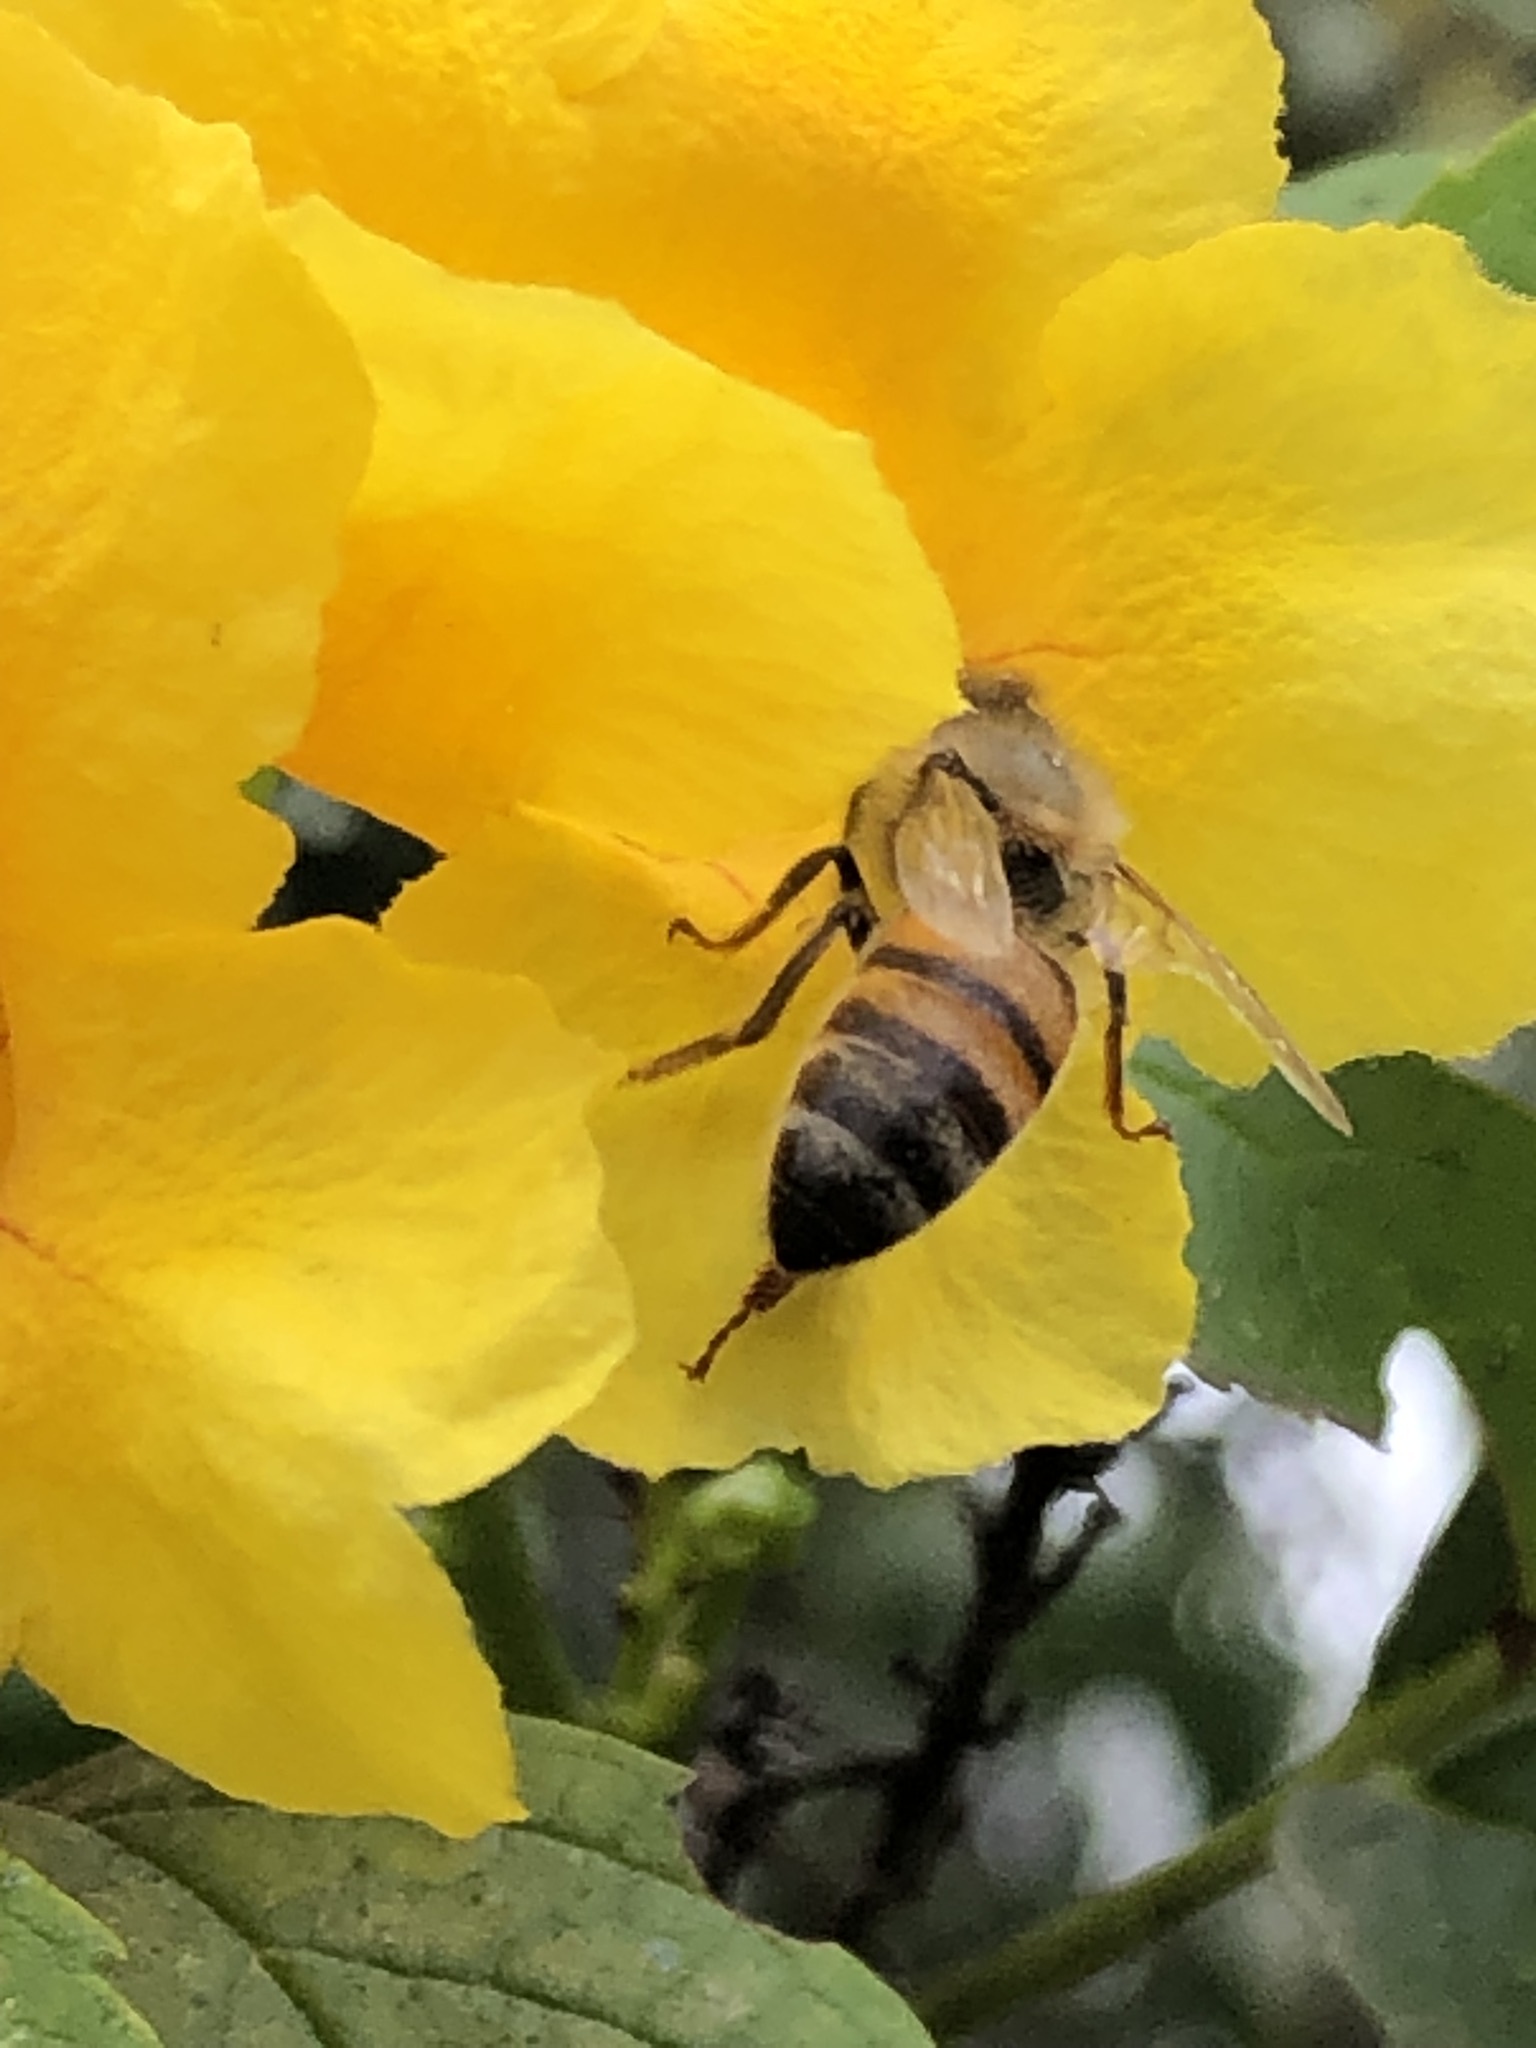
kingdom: Animalia
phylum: Arthropoda
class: Insecta
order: Hymenoptera
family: Apidae
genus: Apis
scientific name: Apis mellifera
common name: Honey bee
